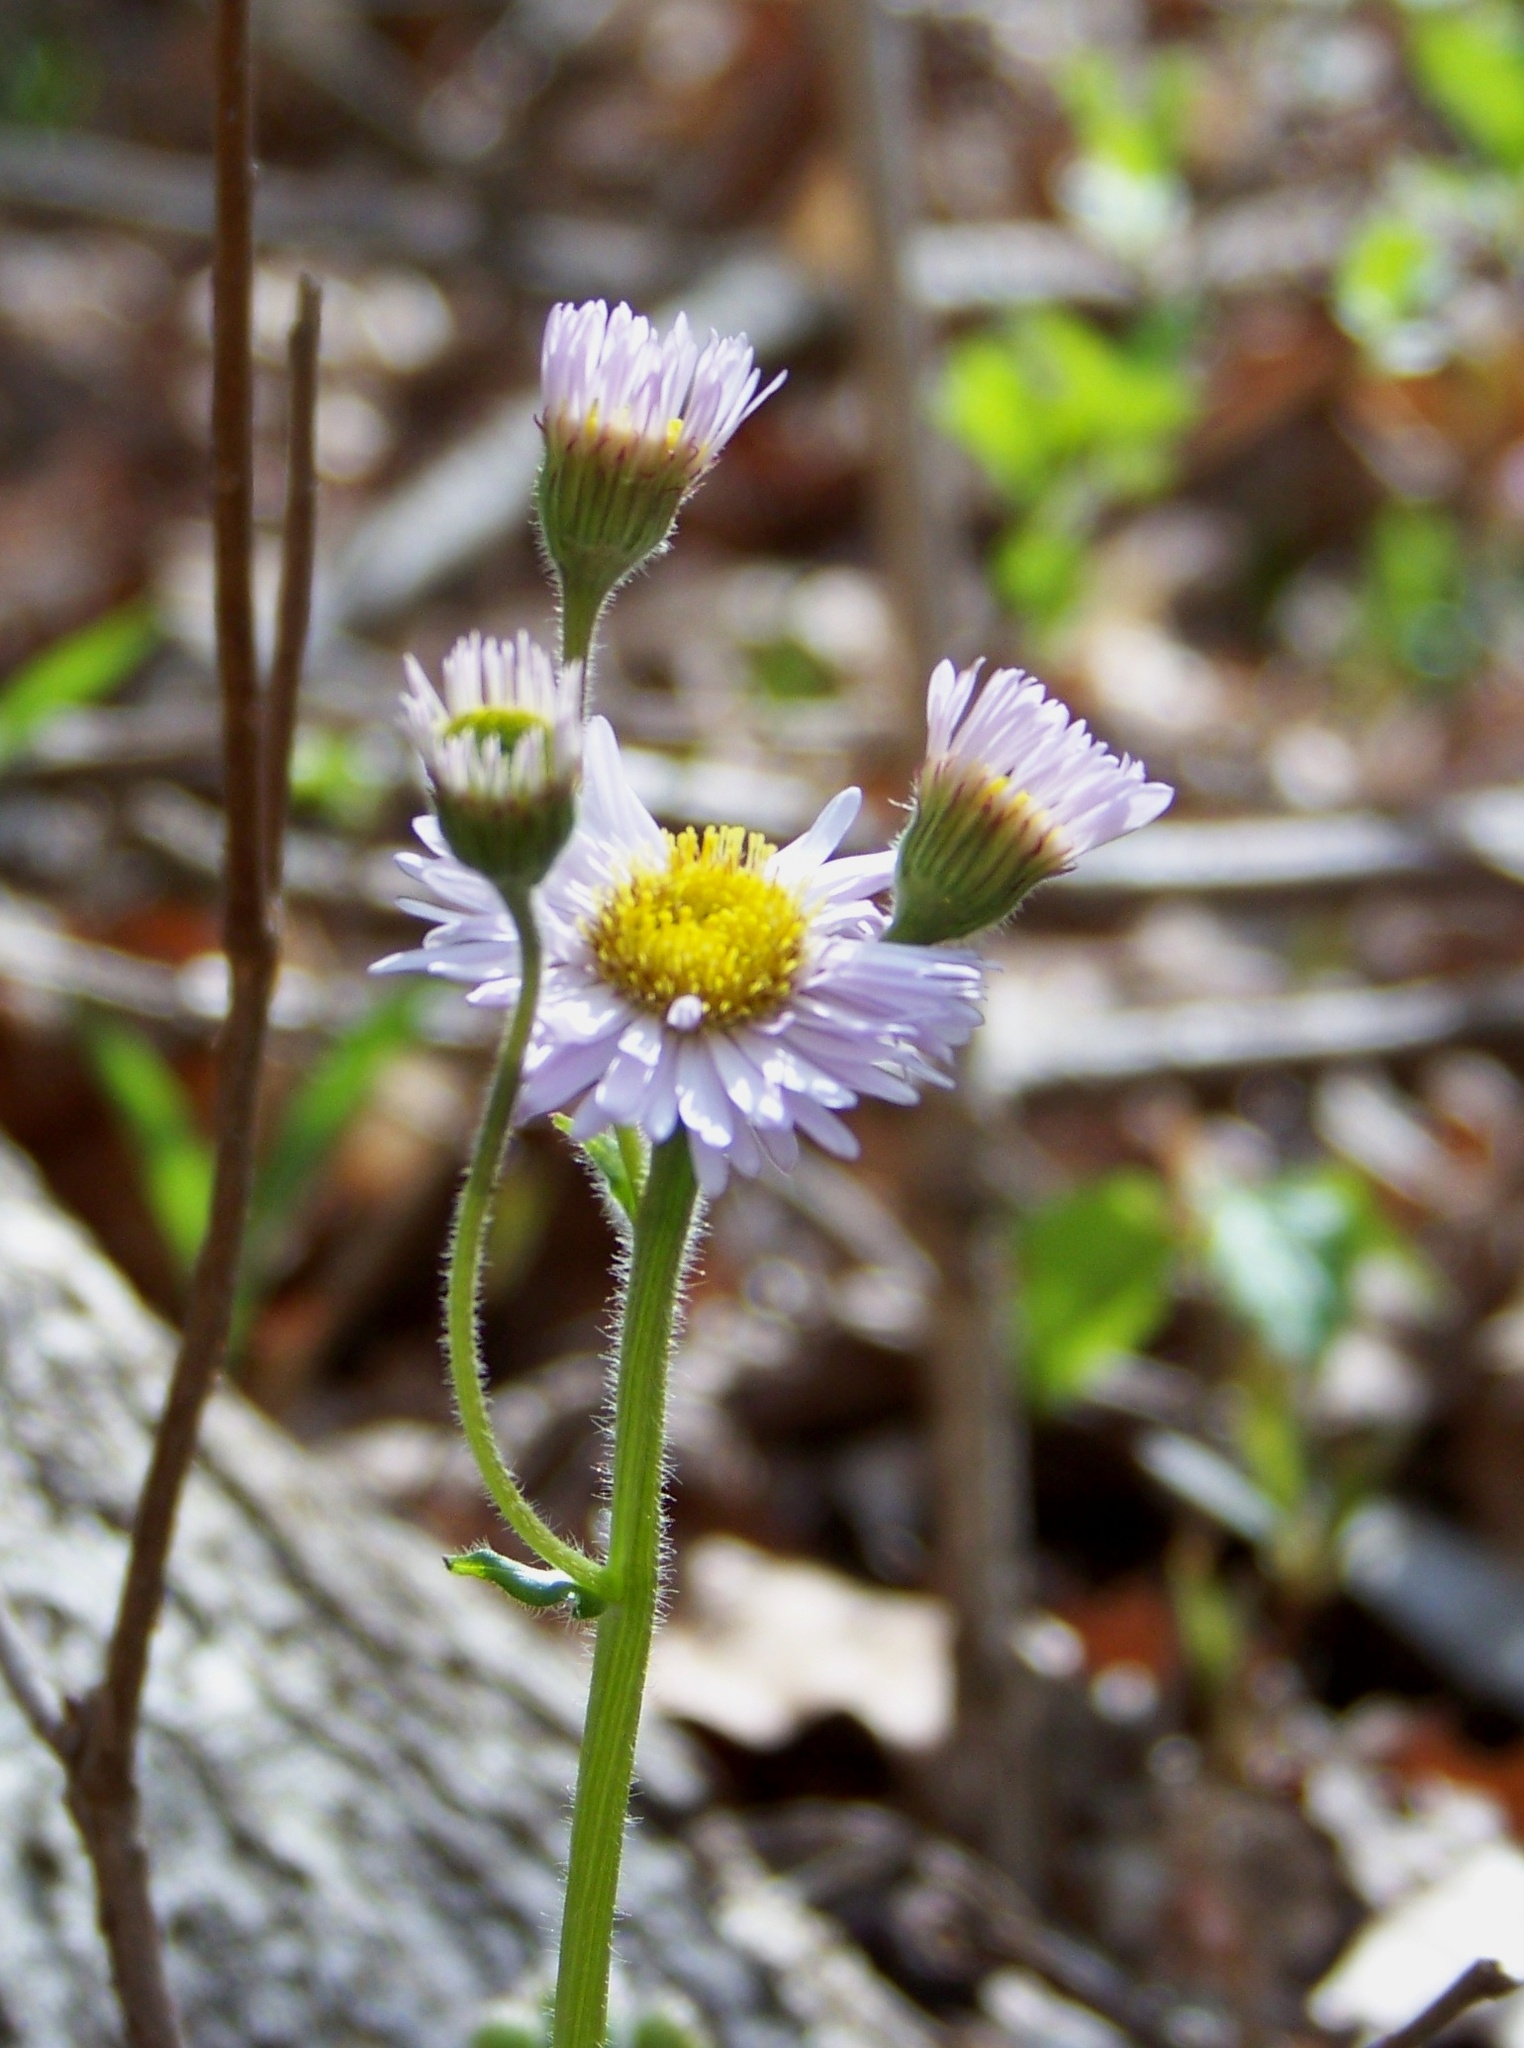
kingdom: Plantae
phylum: Tracheophyta
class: Magnoliopsida
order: Asterales
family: Asteraceae
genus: Erigeron
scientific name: Erigeron pulchellus
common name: Hairy fleabane
